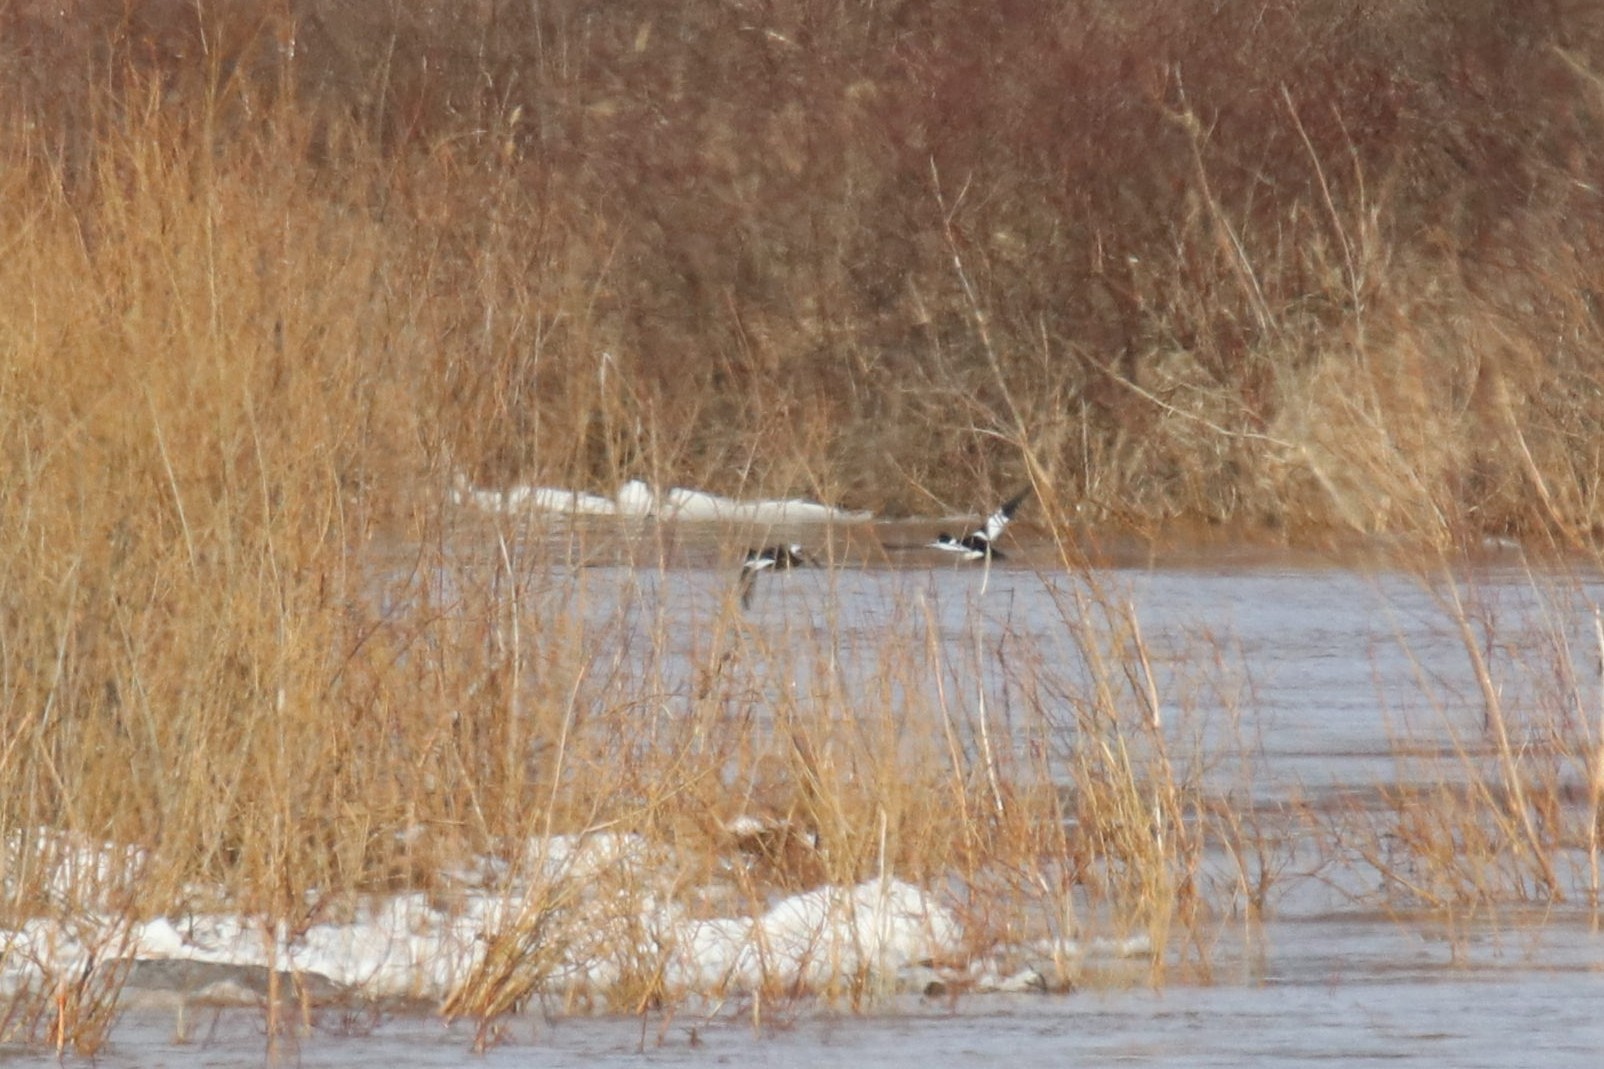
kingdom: Animalia
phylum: Chordata
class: Aves
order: Anseriformes
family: Anatidae
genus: Bucephala
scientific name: Bucephala clangula
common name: Common goldeneye
